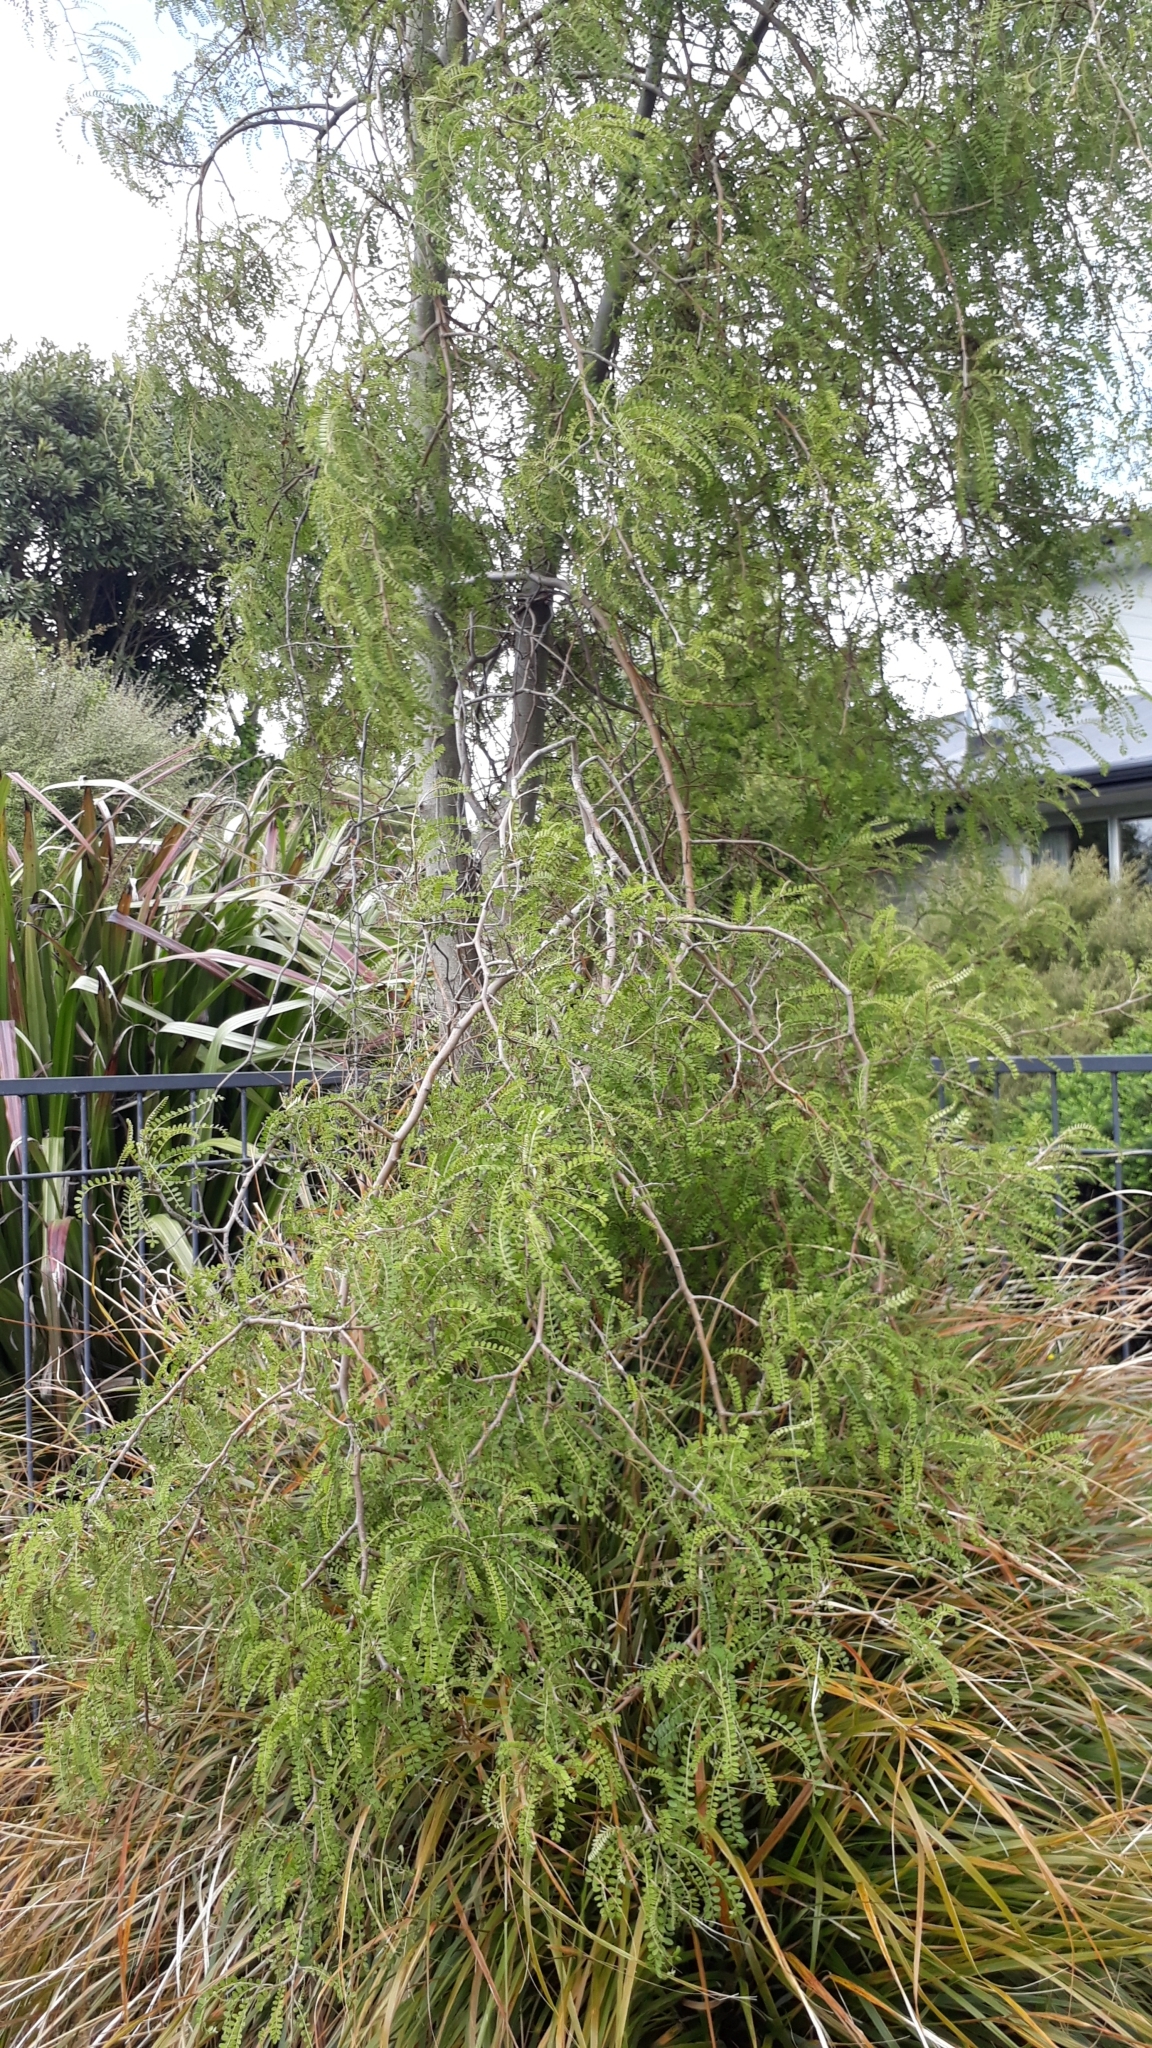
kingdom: Plantae
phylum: Tracheophyta
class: Magnoliopsida
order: Fabales
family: Fabaceae
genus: Sophora
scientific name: Sophora microphylla
